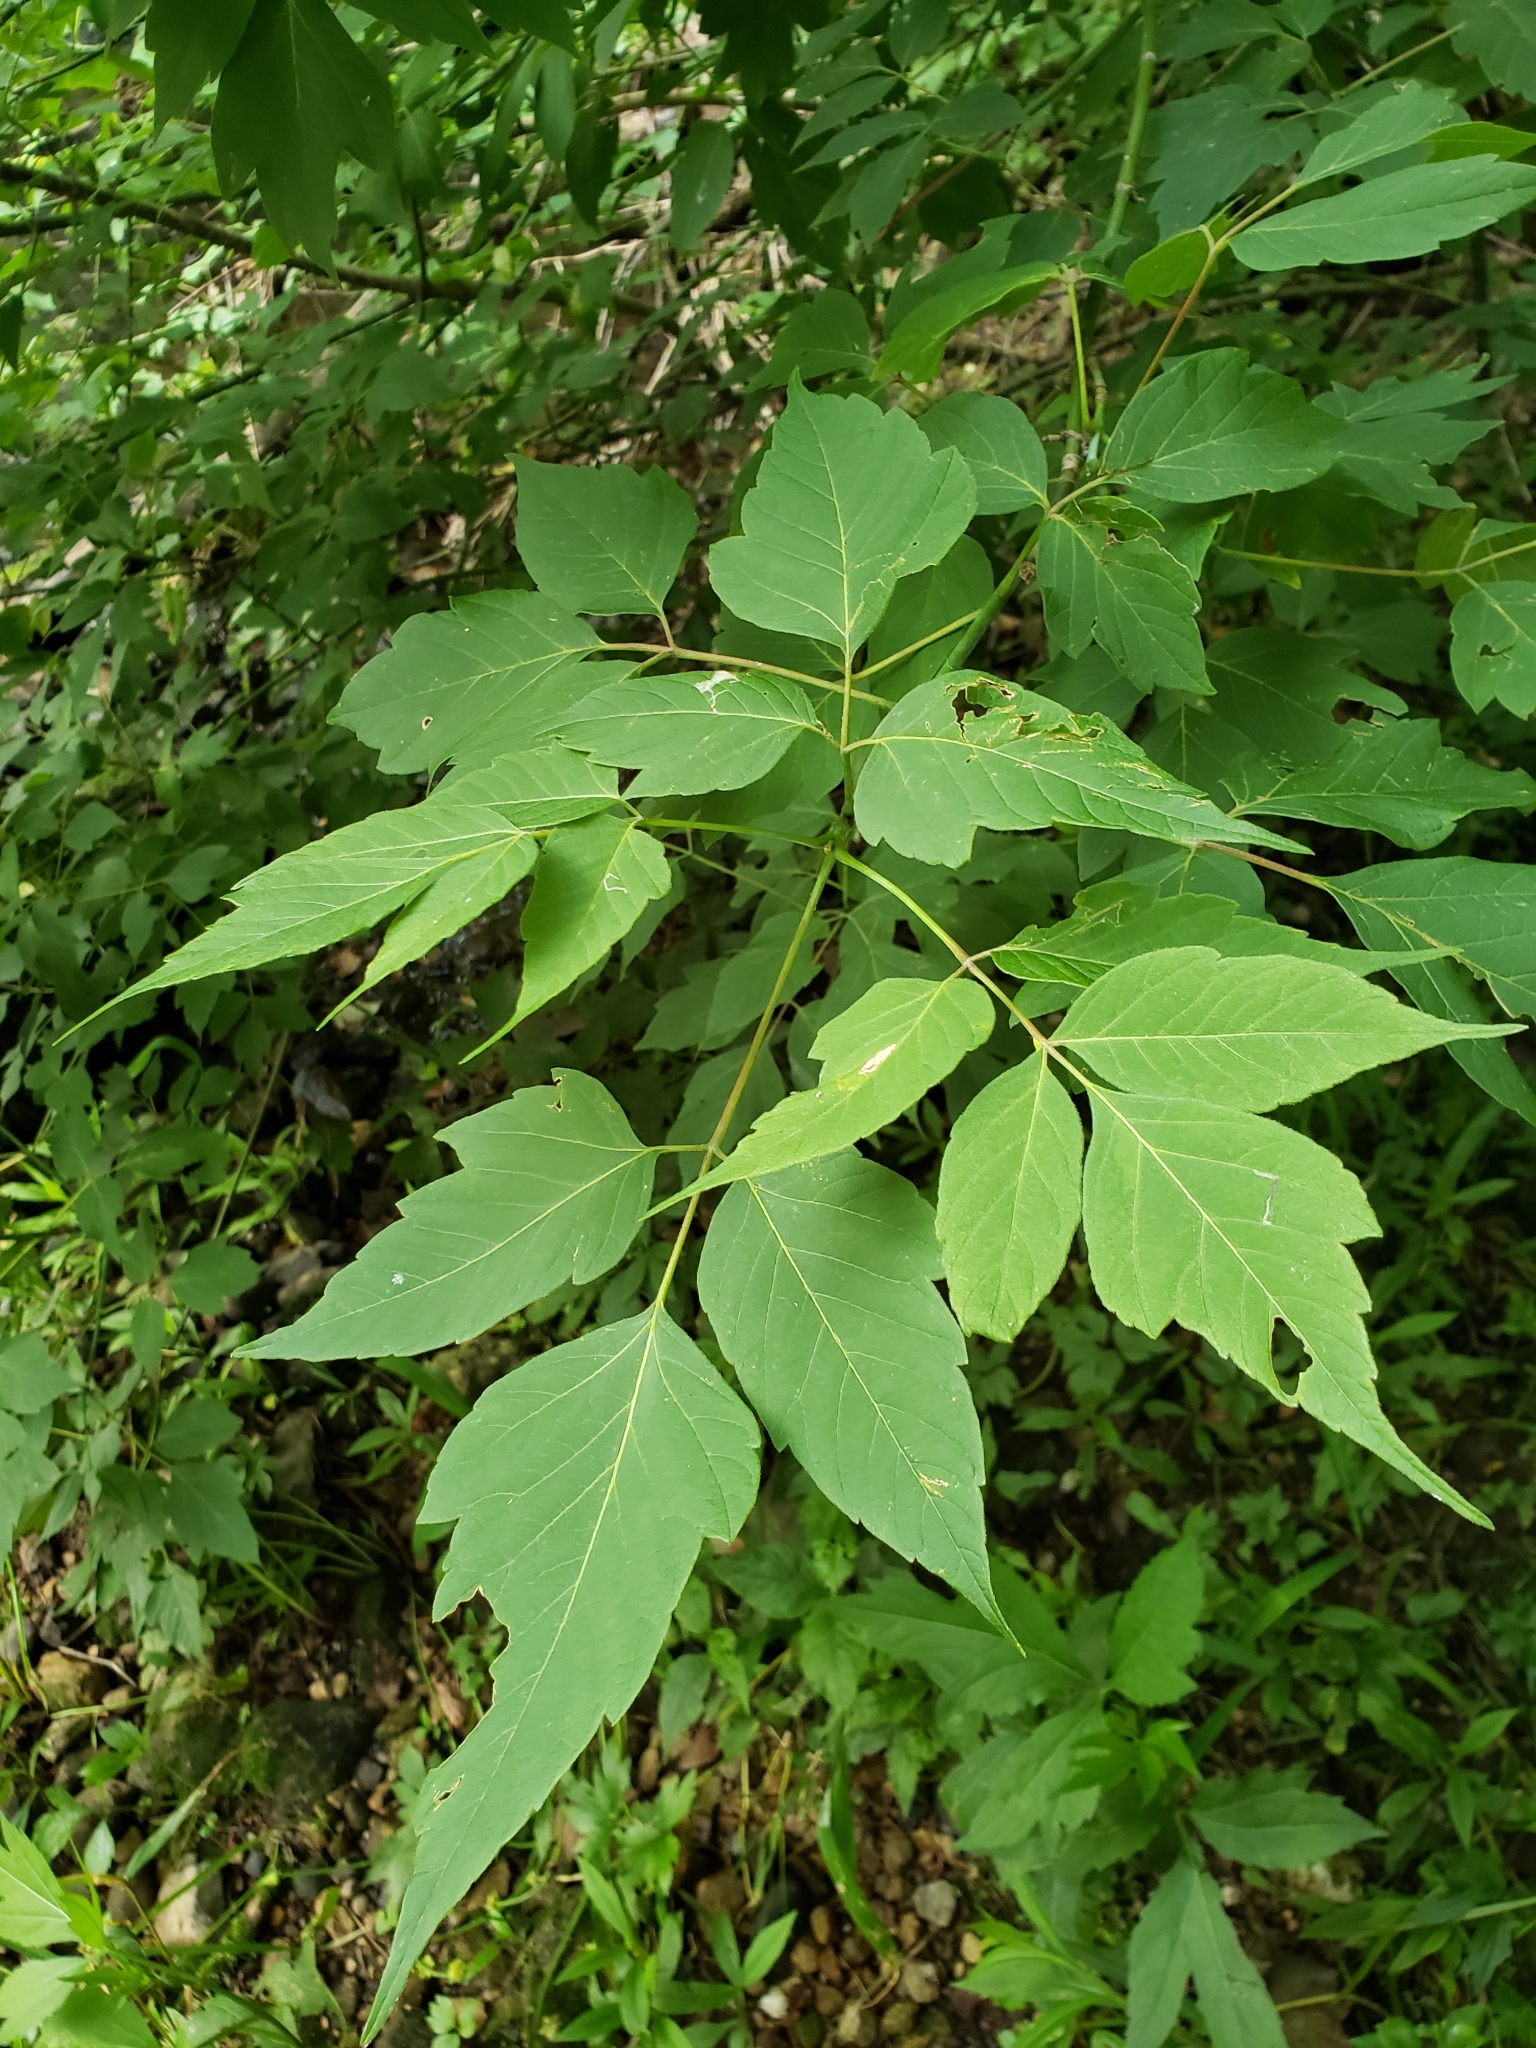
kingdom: Plantae
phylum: Tracheophyta
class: Magnoliopsida
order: Sapindales
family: Sapindaceae
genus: Acer
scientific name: Acer negundo
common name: Ashleaf maple
